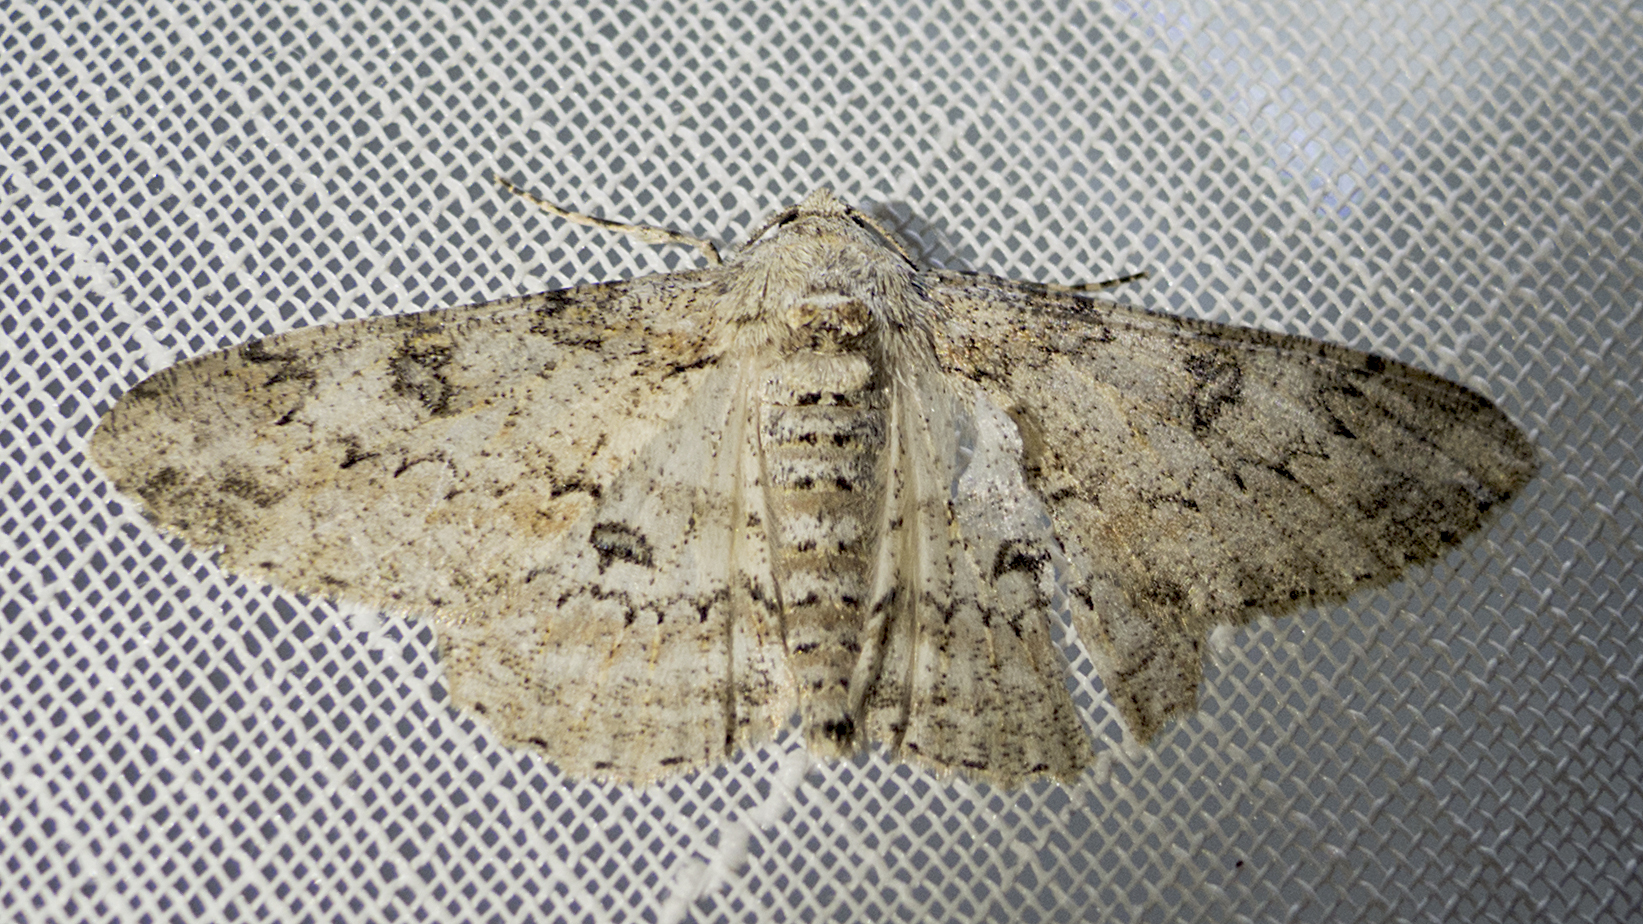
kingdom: Animalia
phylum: Arthropoda
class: Insecta
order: Lepidoptera
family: Geometridae
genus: Ascotis
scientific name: Ascotis selenaria
